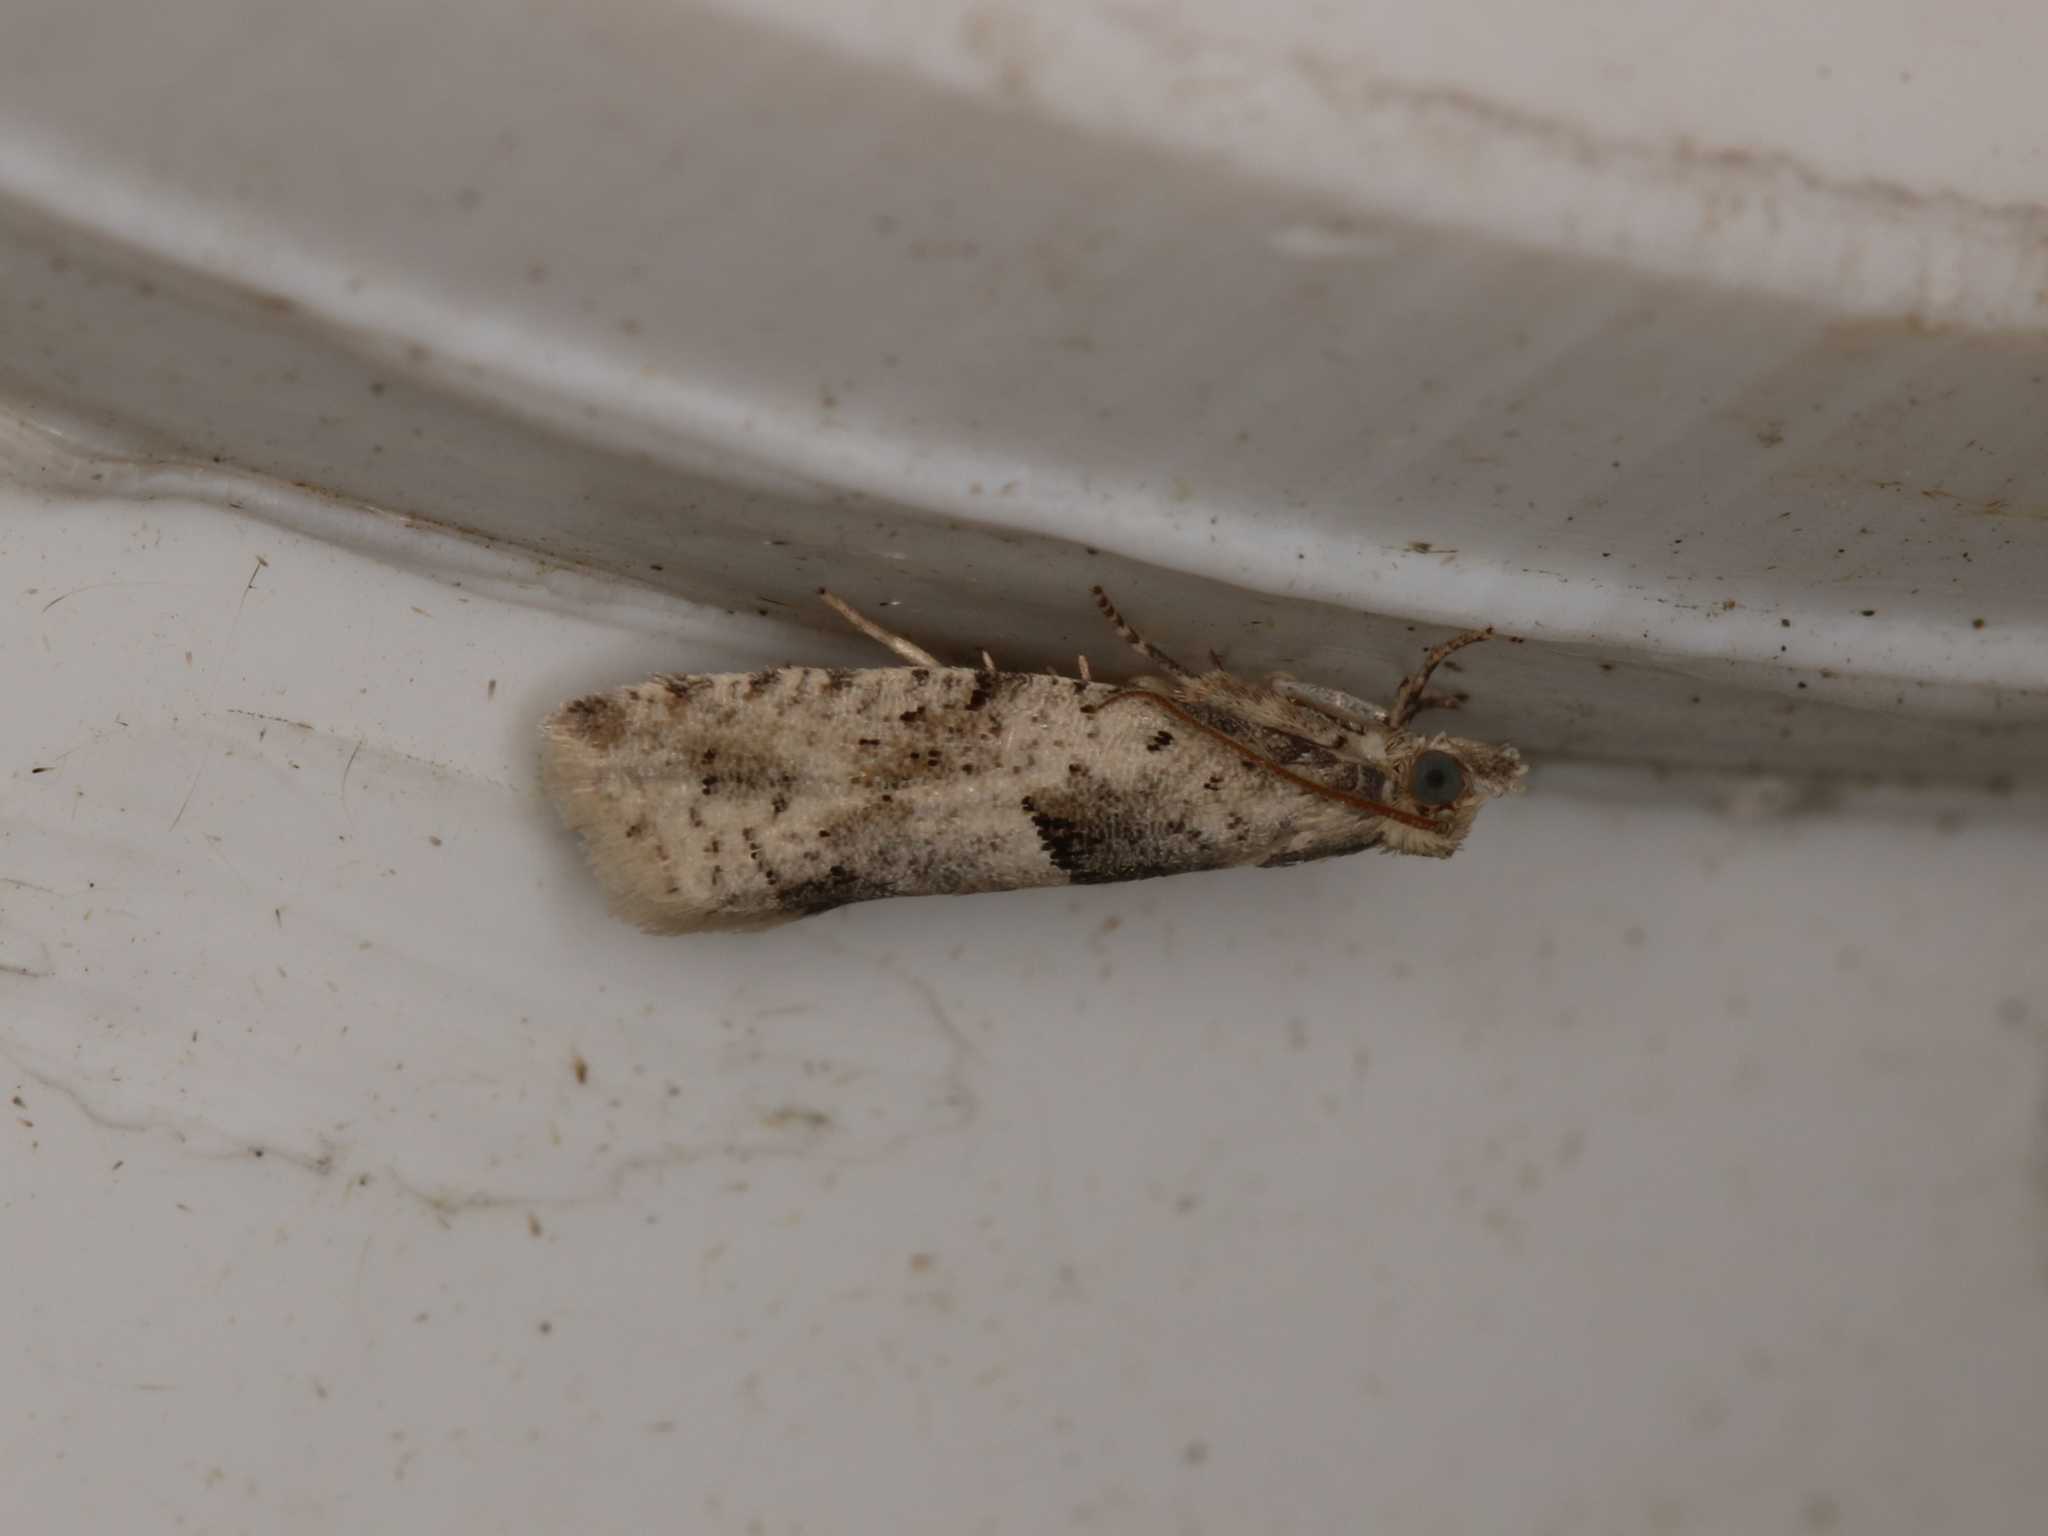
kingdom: Animalia
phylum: Arthropoda
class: Insecta
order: Lepidoptera
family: Tortricidae
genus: Epinotia
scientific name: Epinotia bilunana
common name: Crescent bell
